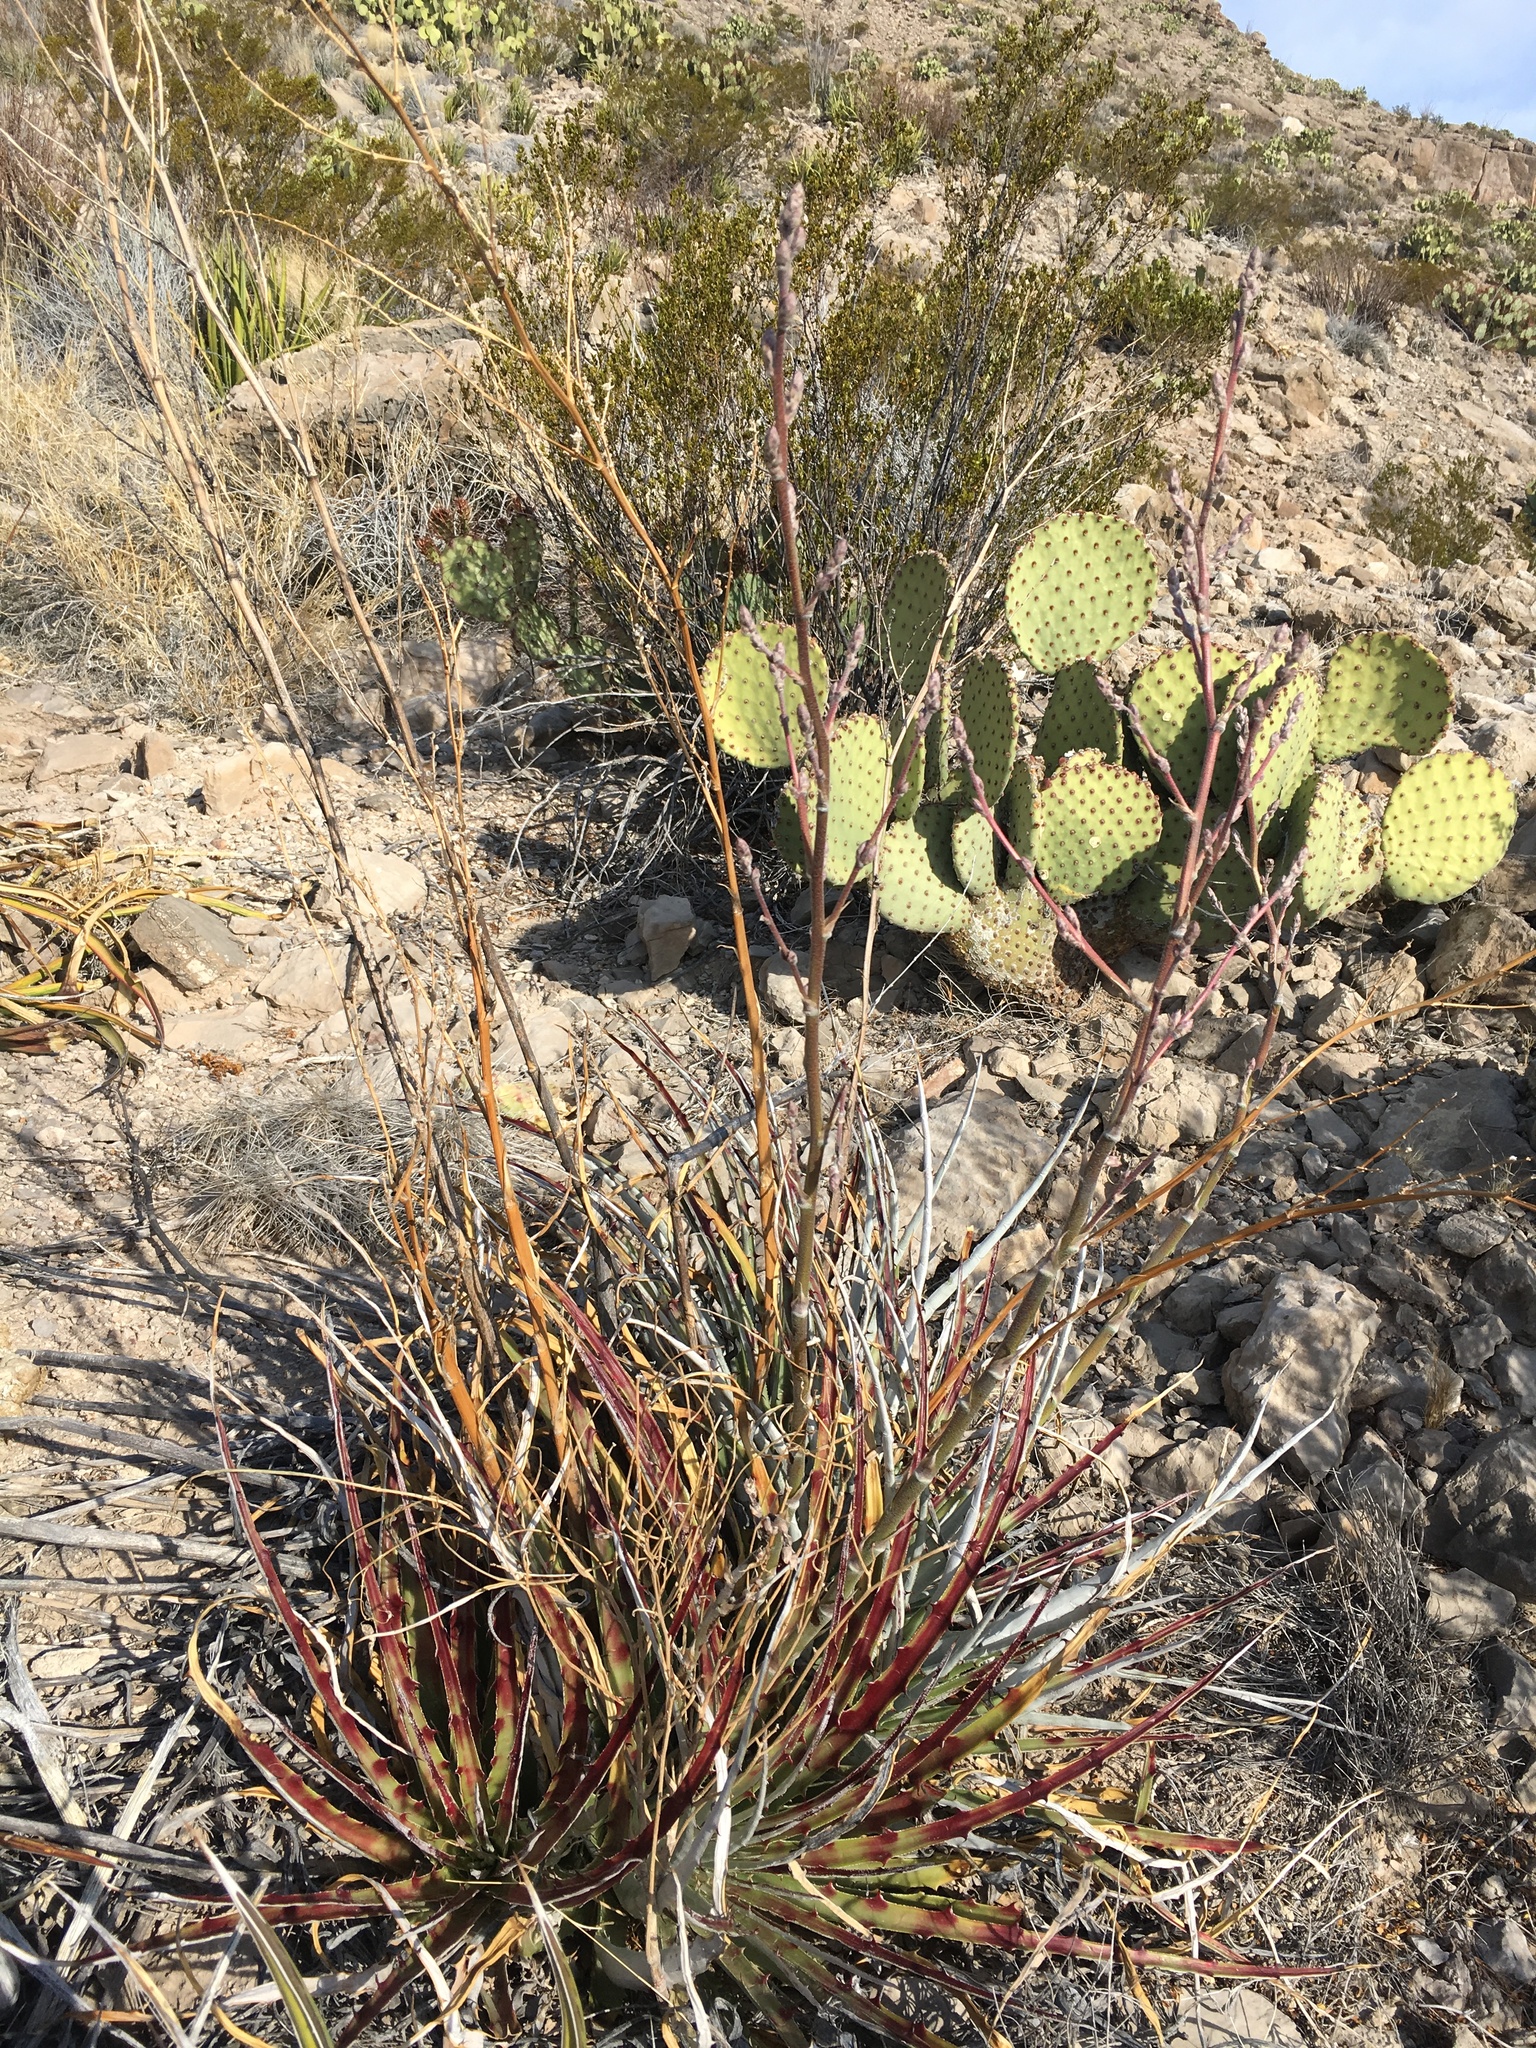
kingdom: Plantae
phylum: Tracheophyta
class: Liliopsida
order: Poales
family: Bromeliaceae
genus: Hechtia
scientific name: Hechtia texensis
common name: False agave
